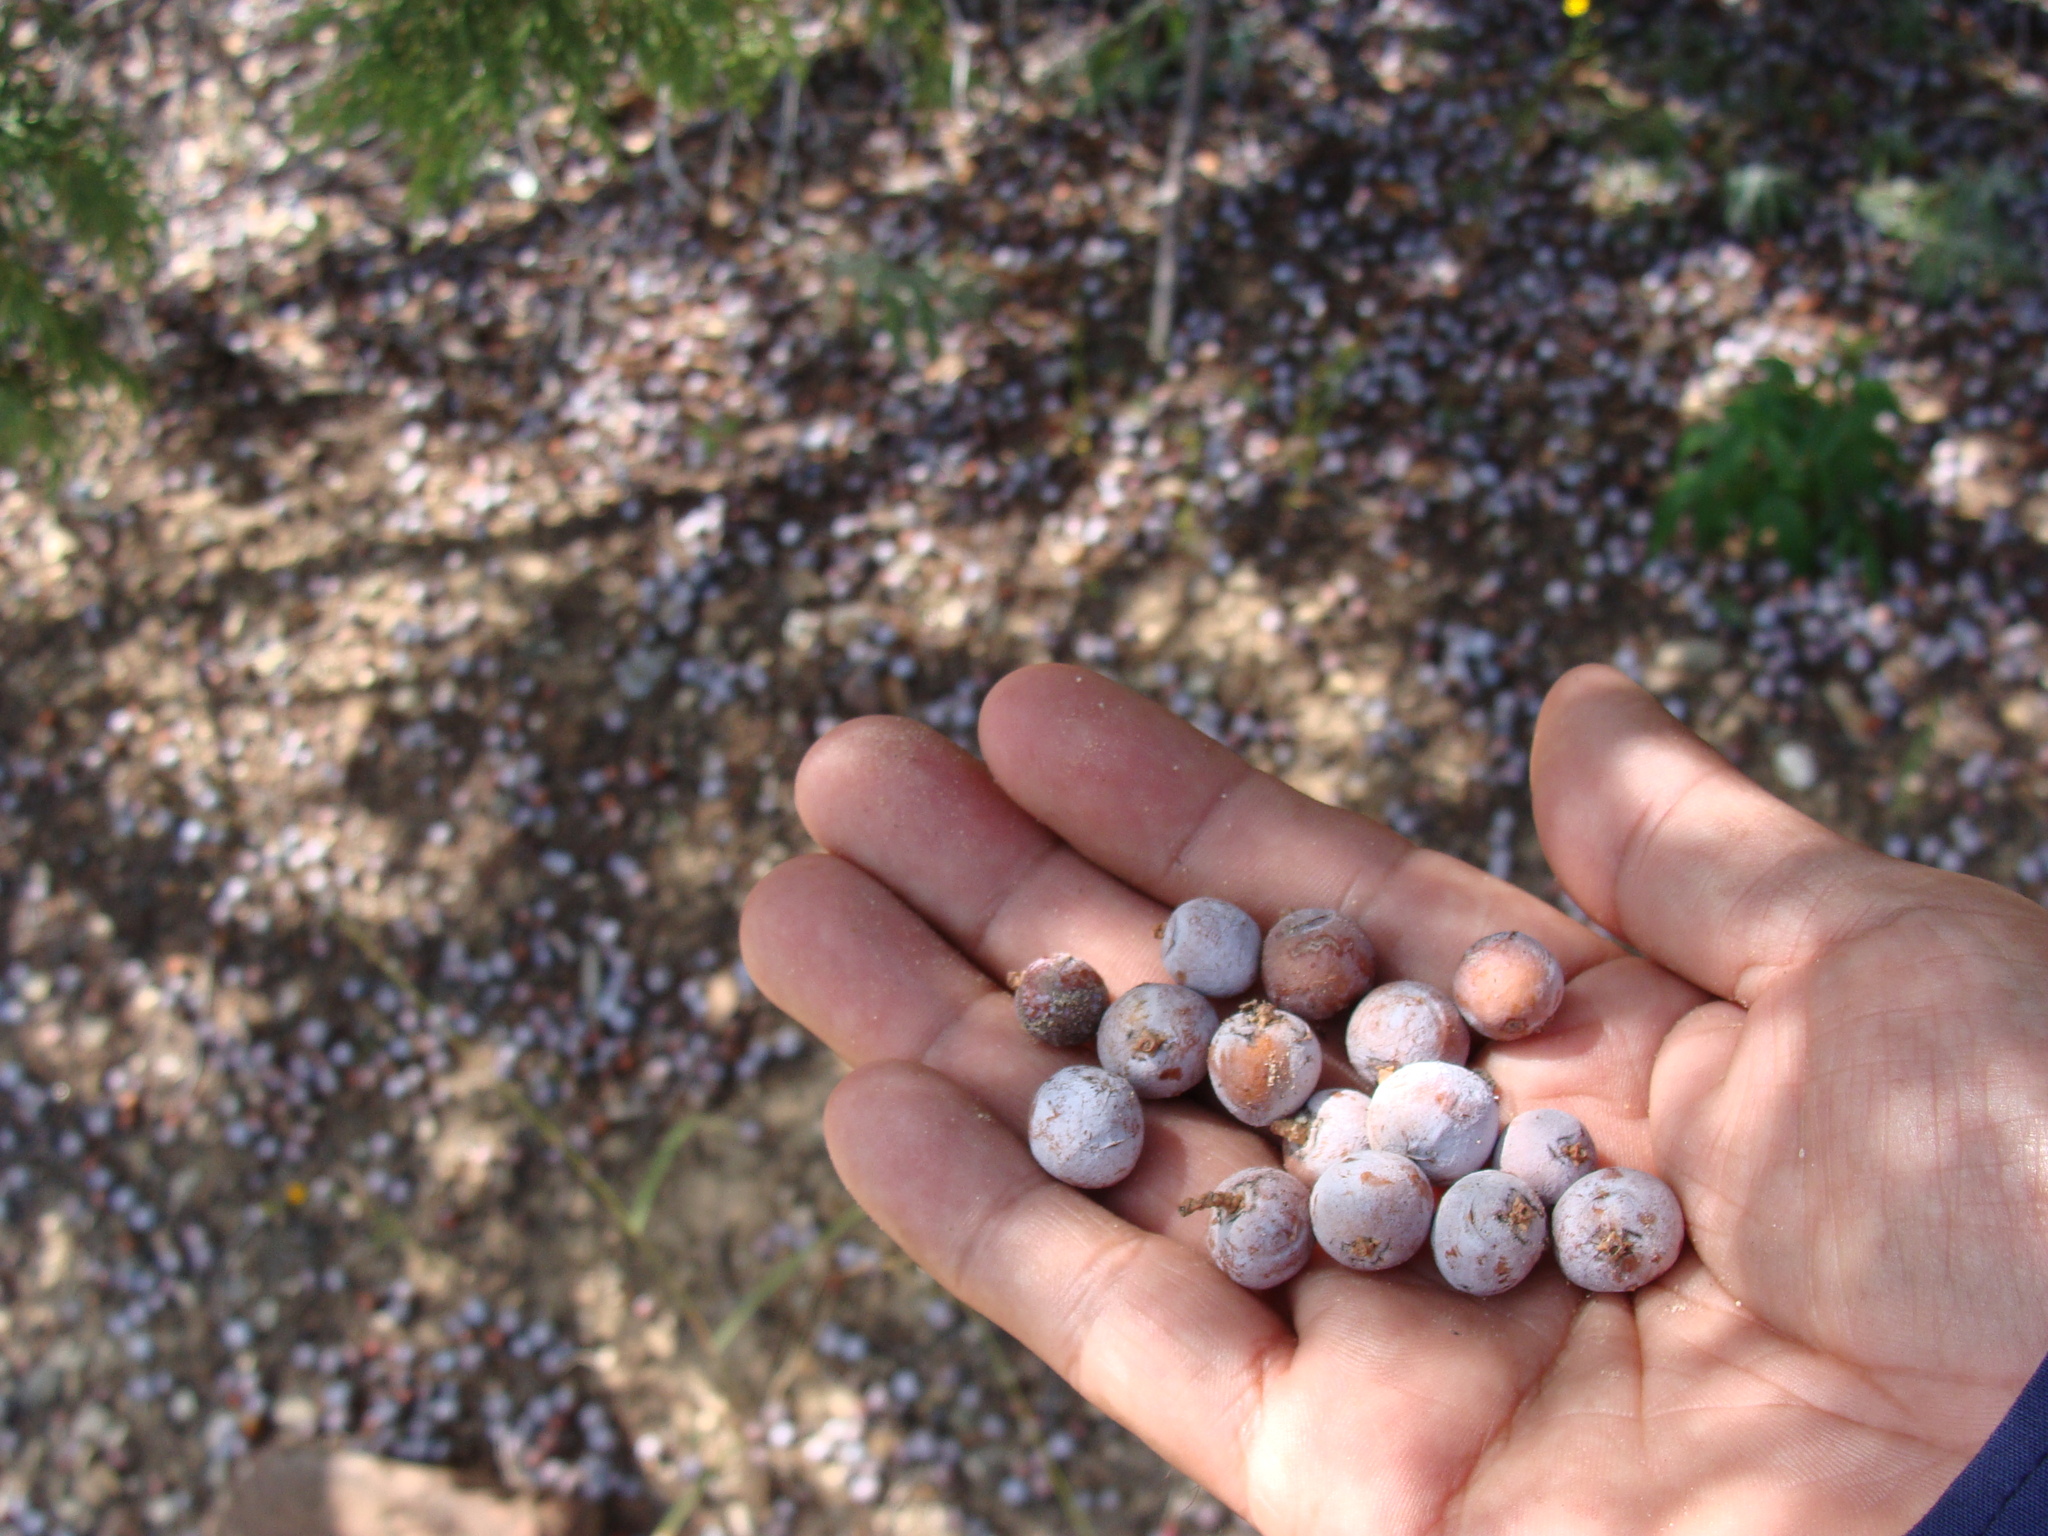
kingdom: Plantae
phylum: Tracheophyta
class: Pinopsida
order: Pinales
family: Cupressaceae
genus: Juniperus
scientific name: Juniperus deppeana
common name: Alligator juniper
